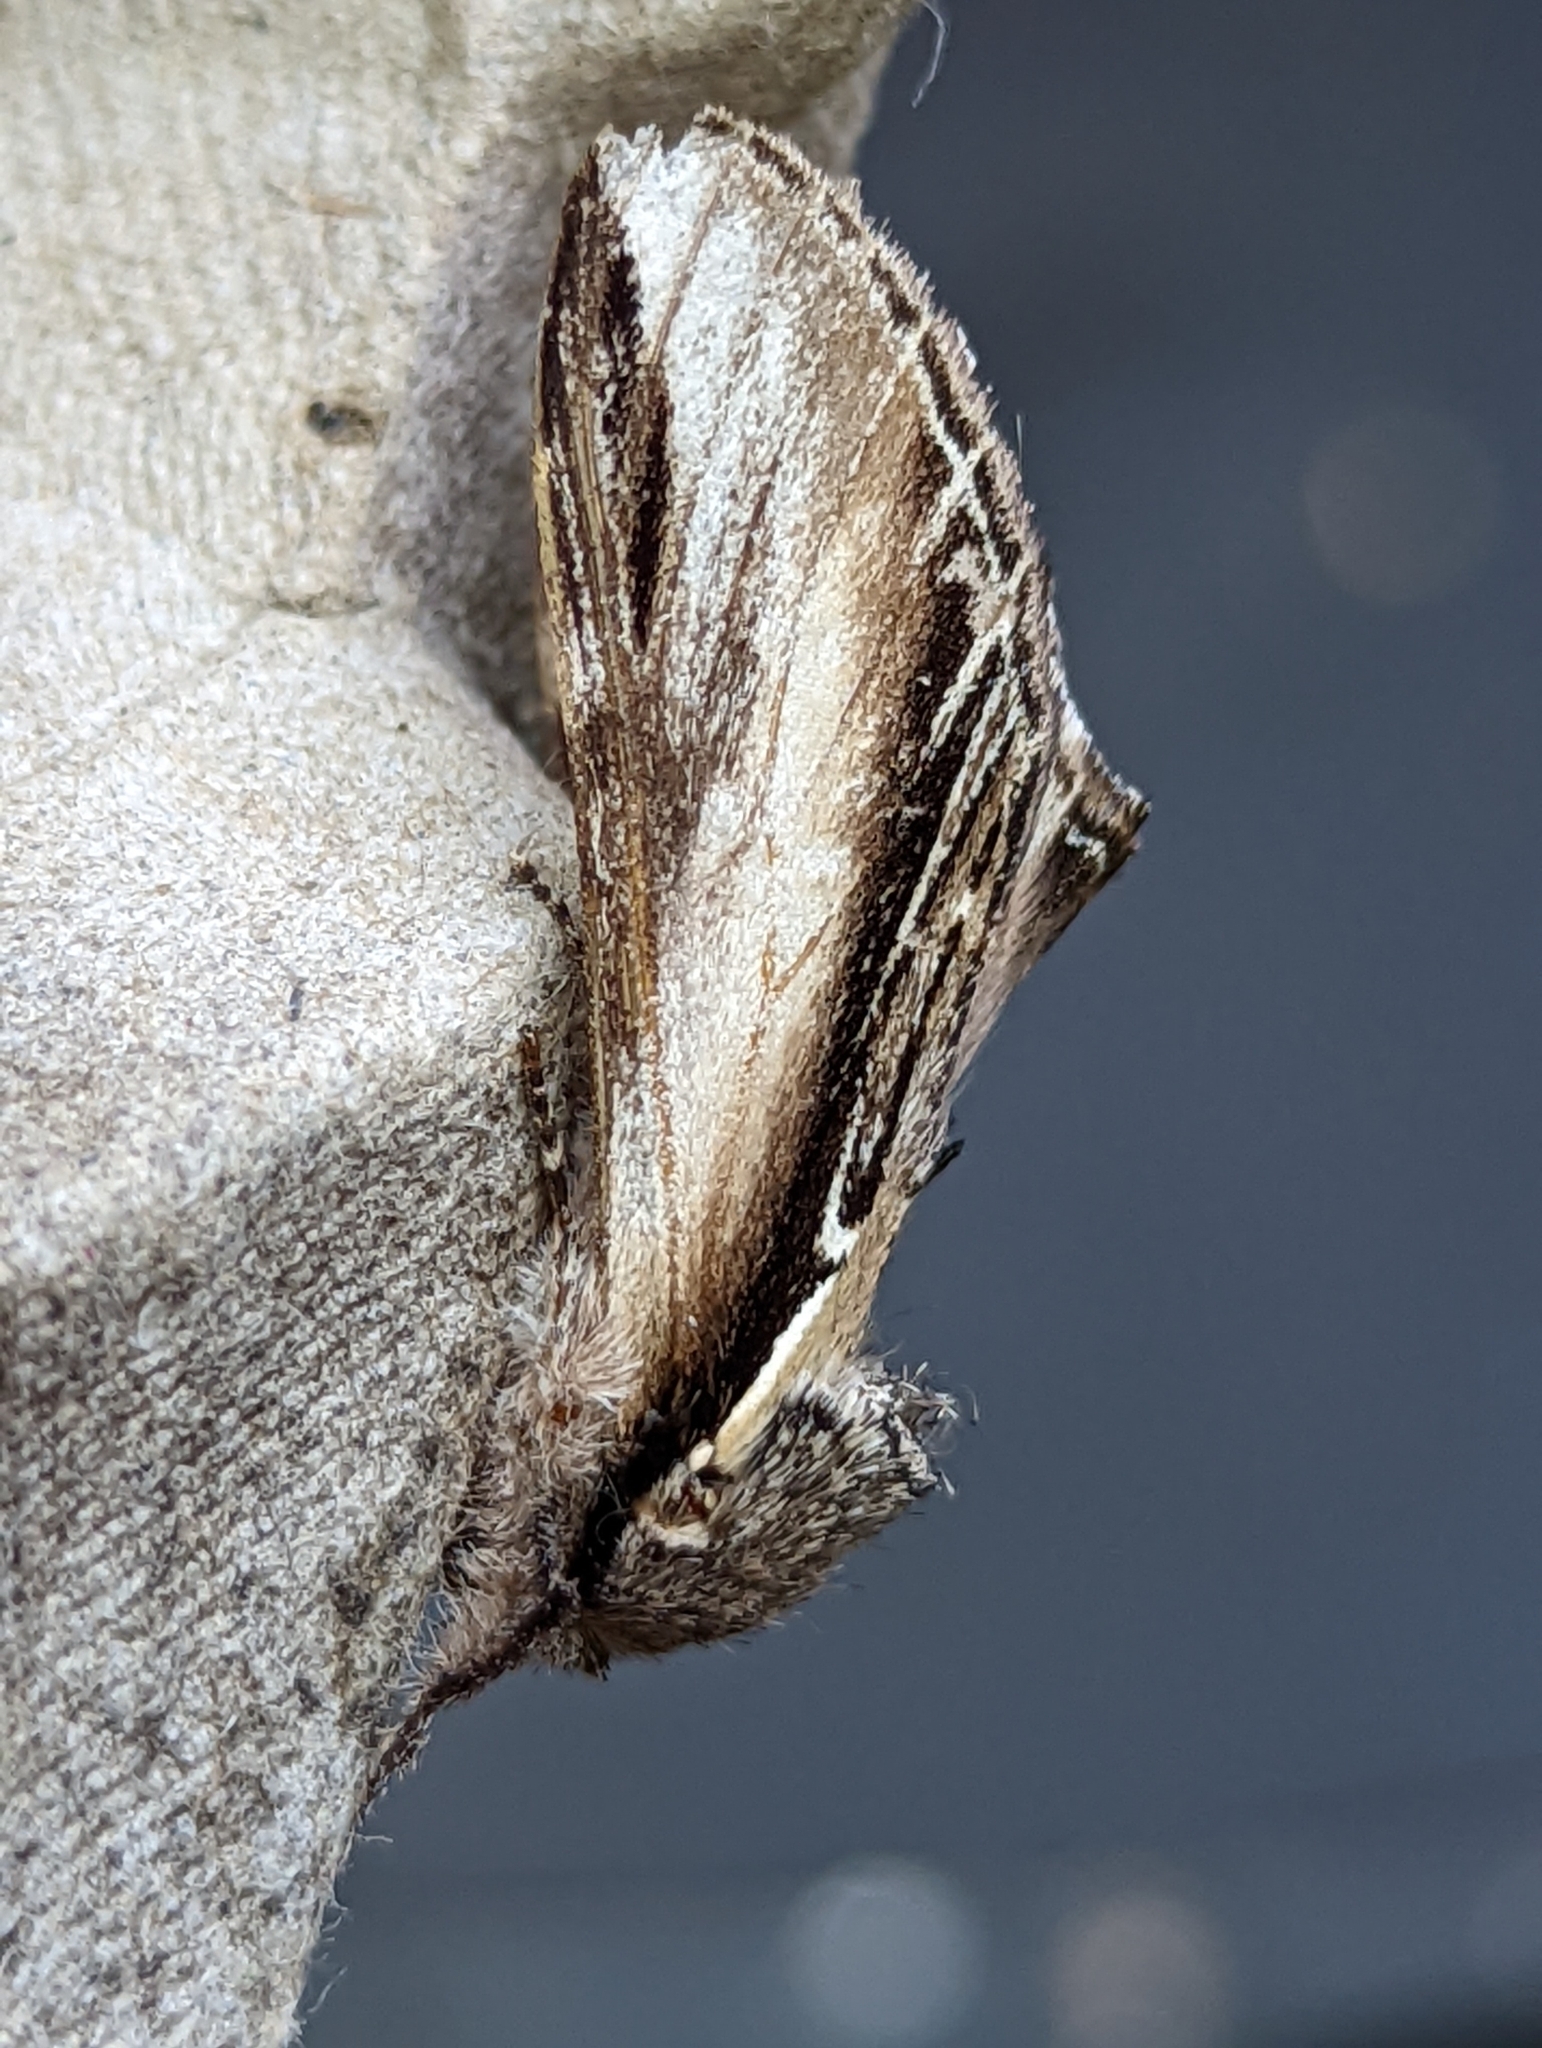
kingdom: Animalia
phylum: Arthropoda
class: Insecta
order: Lepidoptera
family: Notodontidae
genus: Pheosia
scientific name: Pheosia tremula
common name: Swallow prominent
